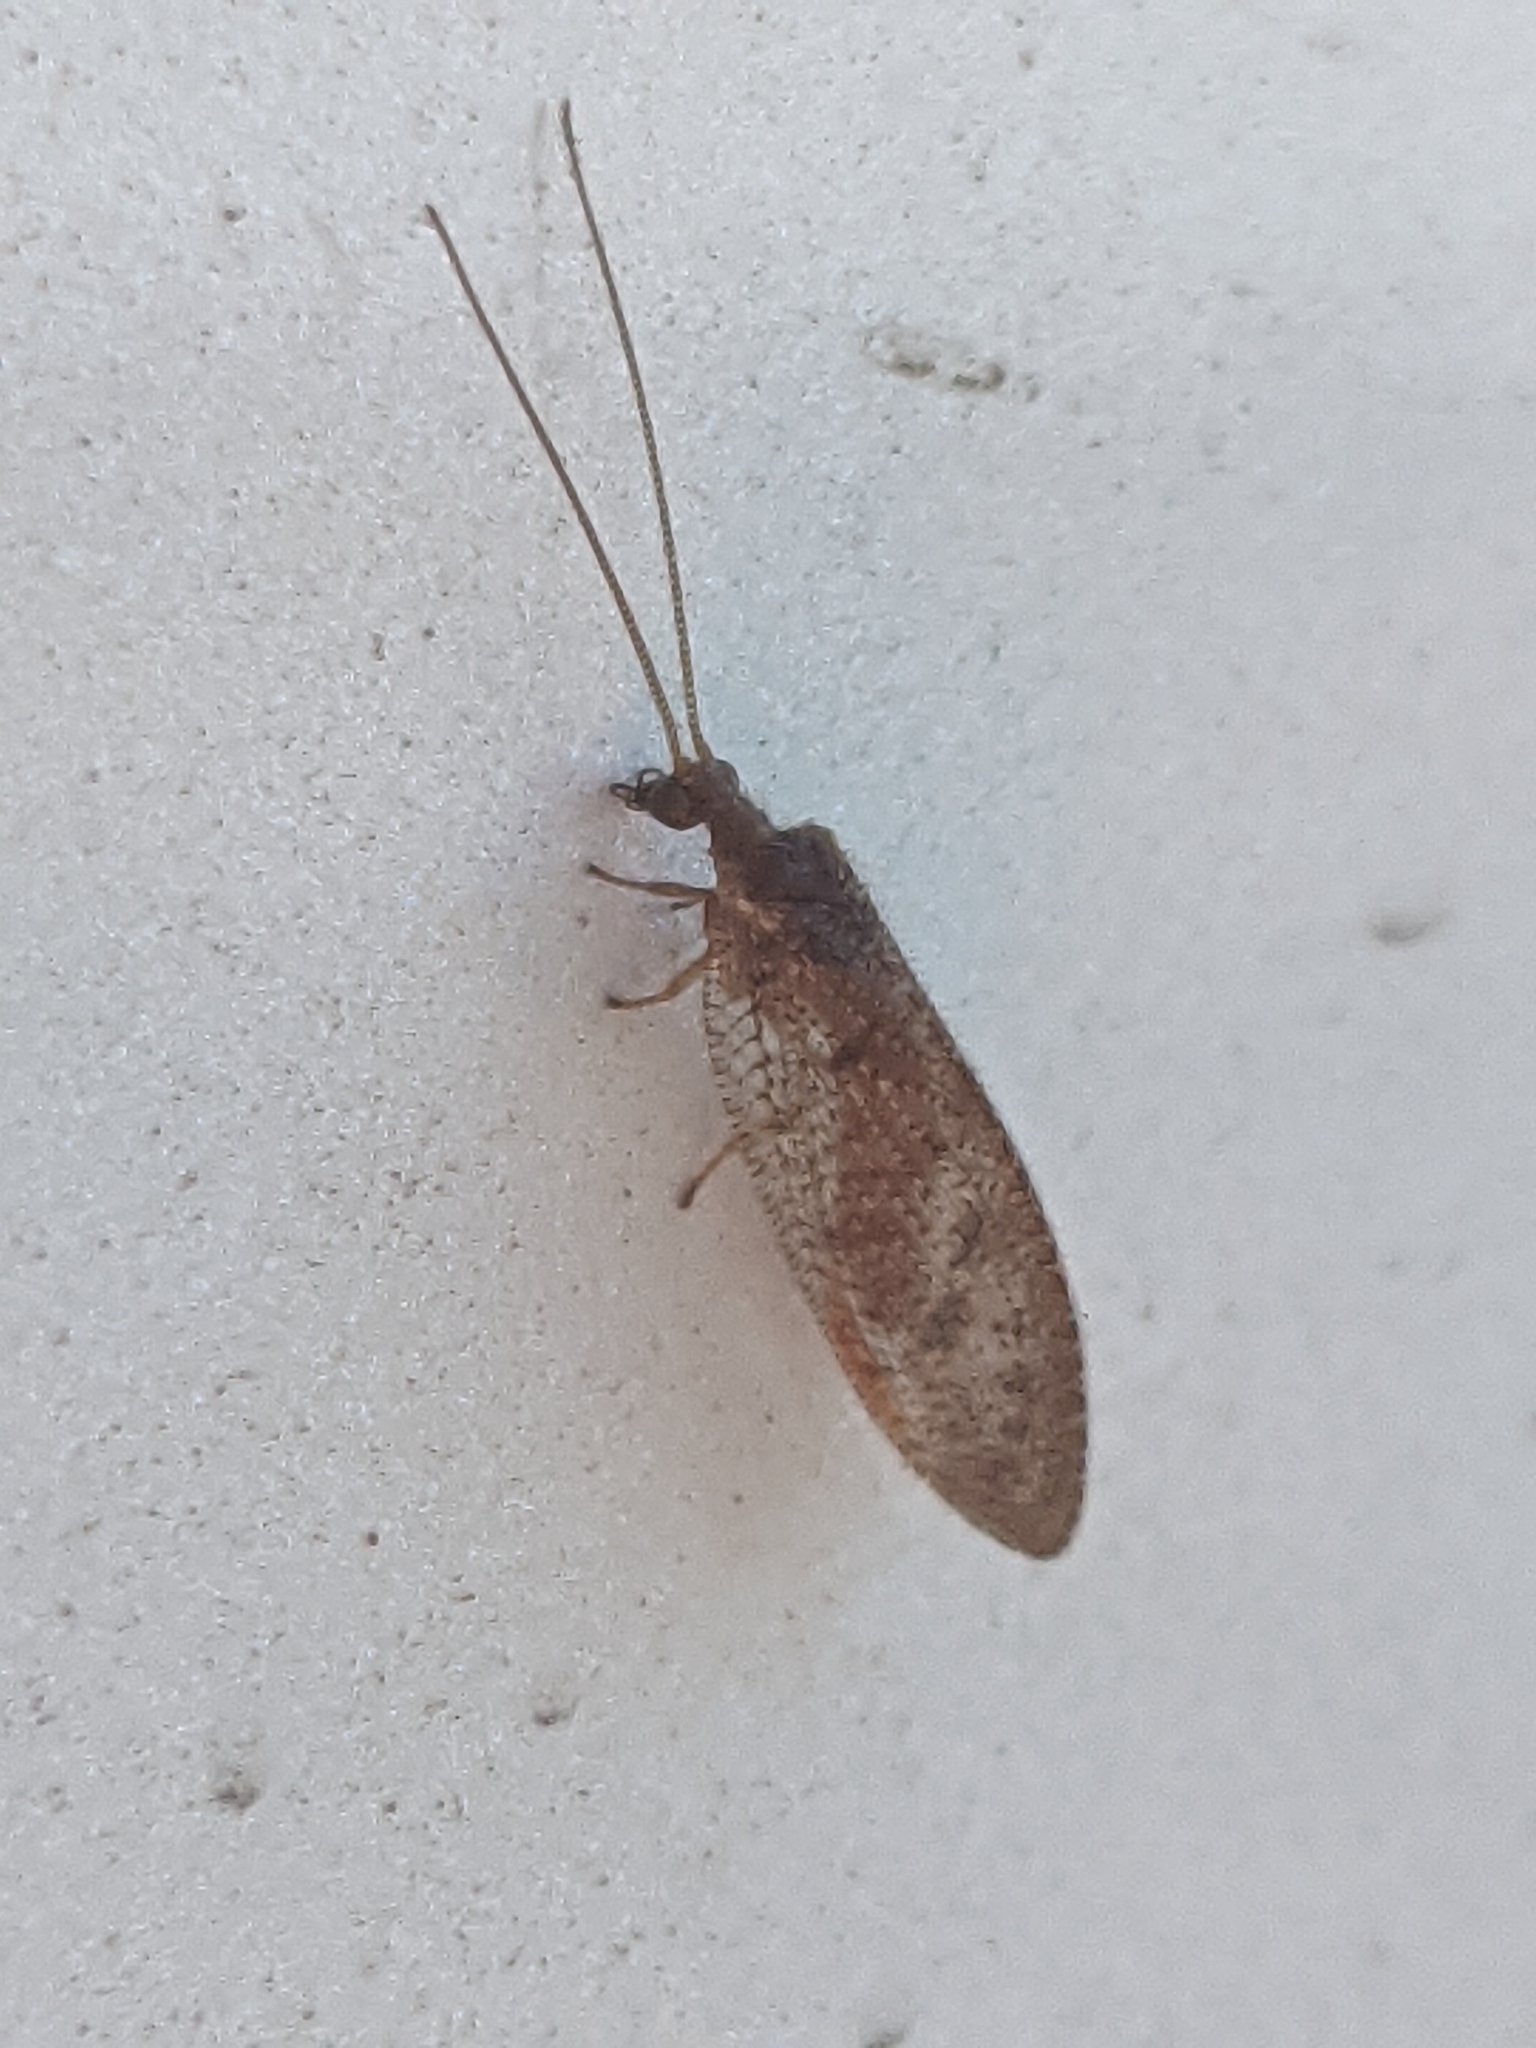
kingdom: Animalia
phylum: Arthropoda
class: Insecta
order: Neuroptera
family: Hemerobiidae
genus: Hemerobius
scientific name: Hemerobius stigma
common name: Brown pine lacewing
